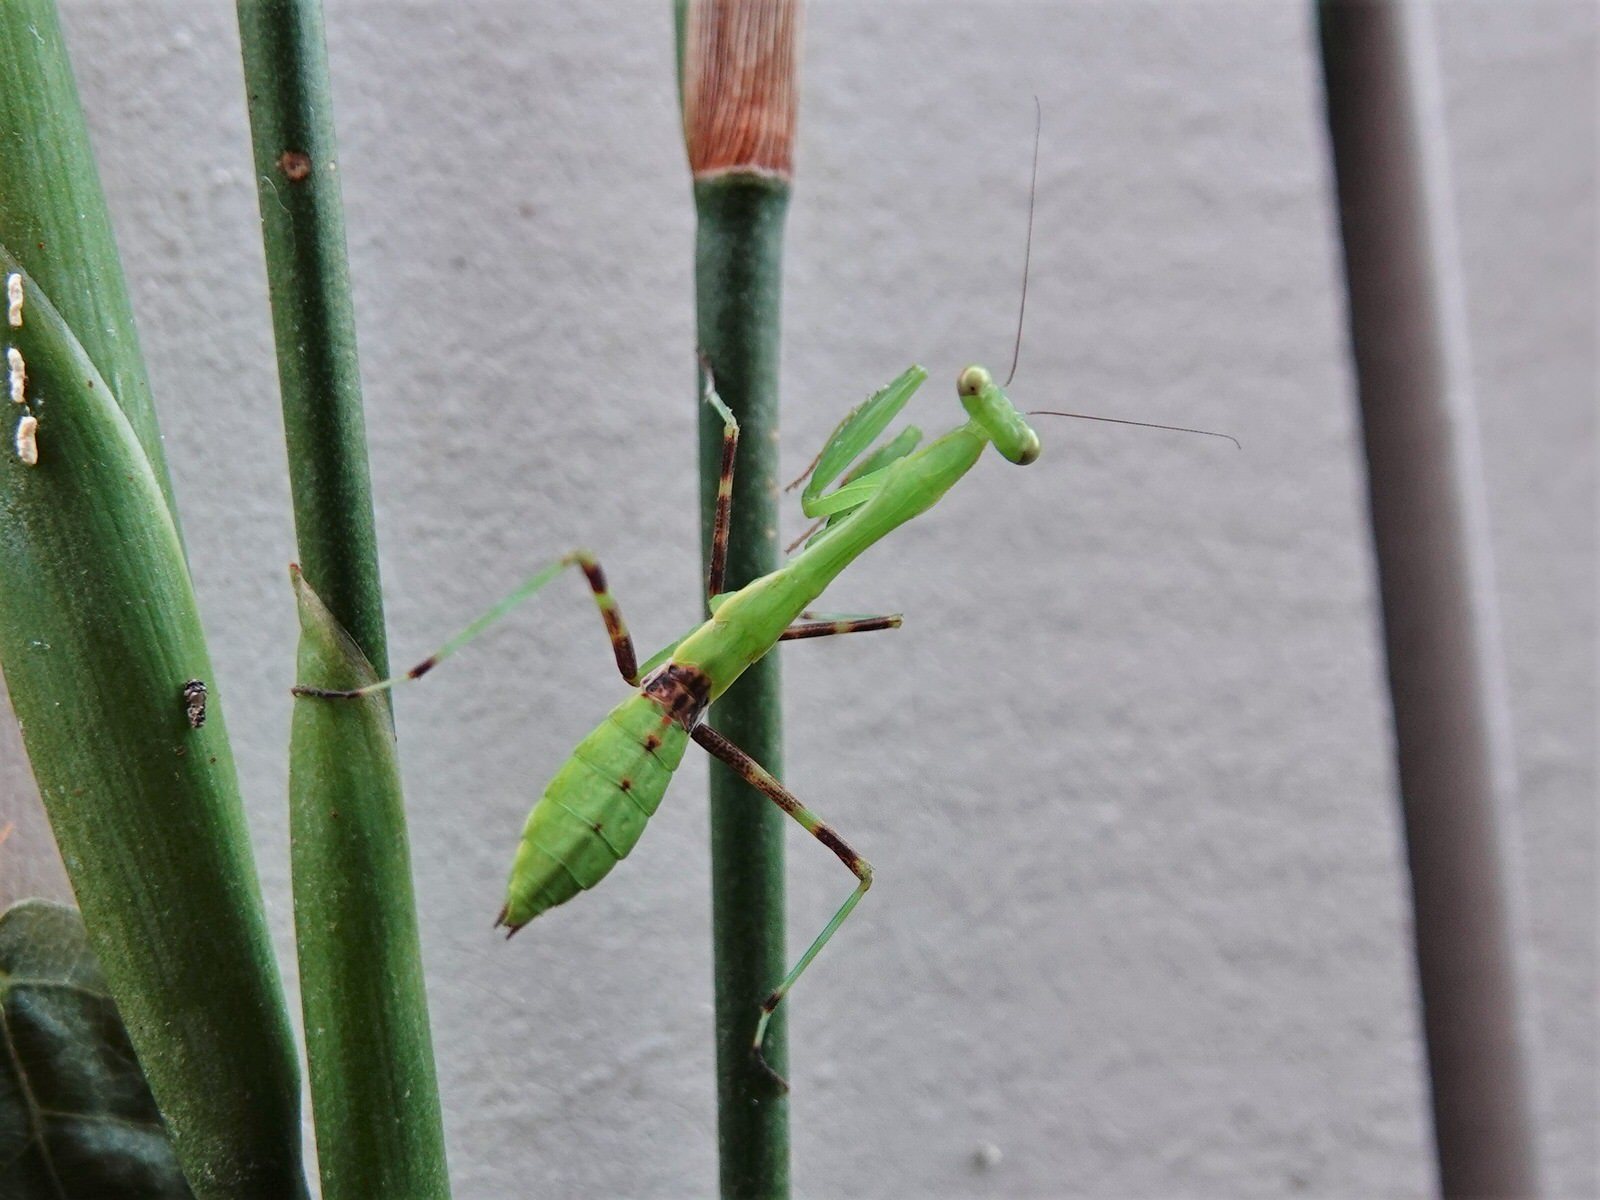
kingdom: Animalia
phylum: Arthropoda
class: Insecta
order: Mantodea
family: Miomantidae
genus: Miomantis
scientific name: Miomantis caffra
